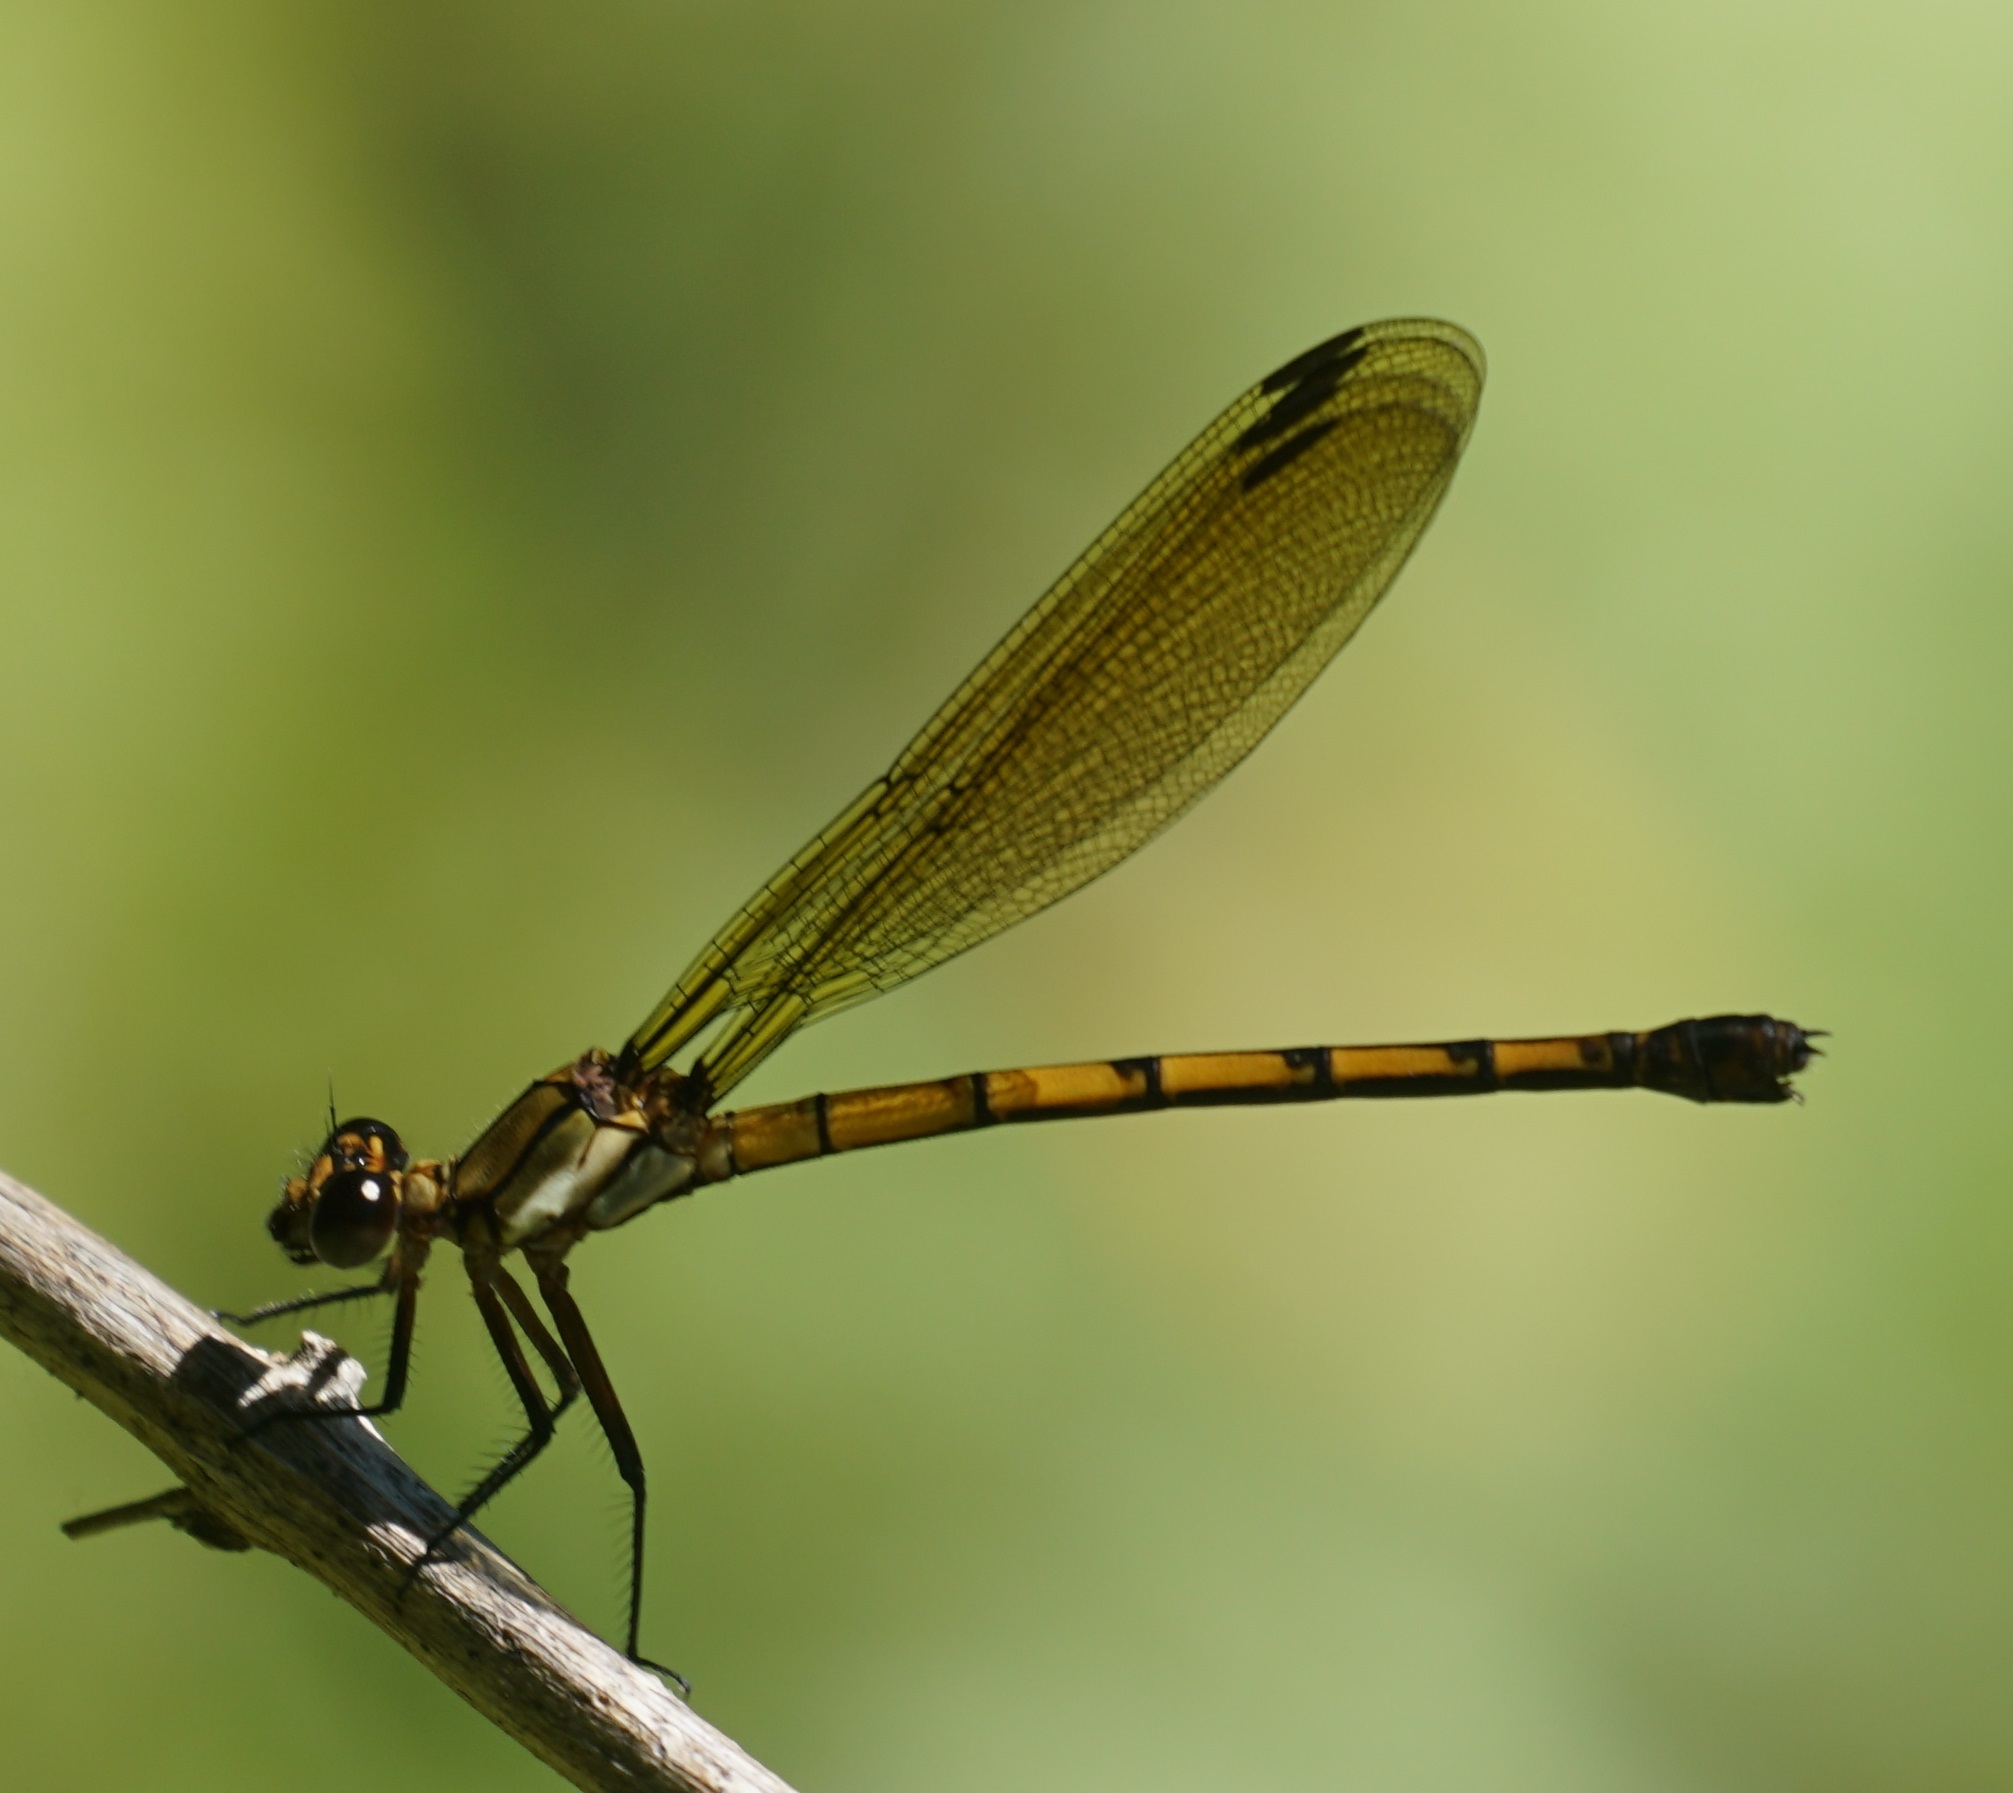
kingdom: Animalia
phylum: Arthropoda
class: Insecta
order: Odonata
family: Lestoideidae
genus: Diphlebia
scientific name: Diphlebia euphoeoides
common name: Tropical rockmaster
